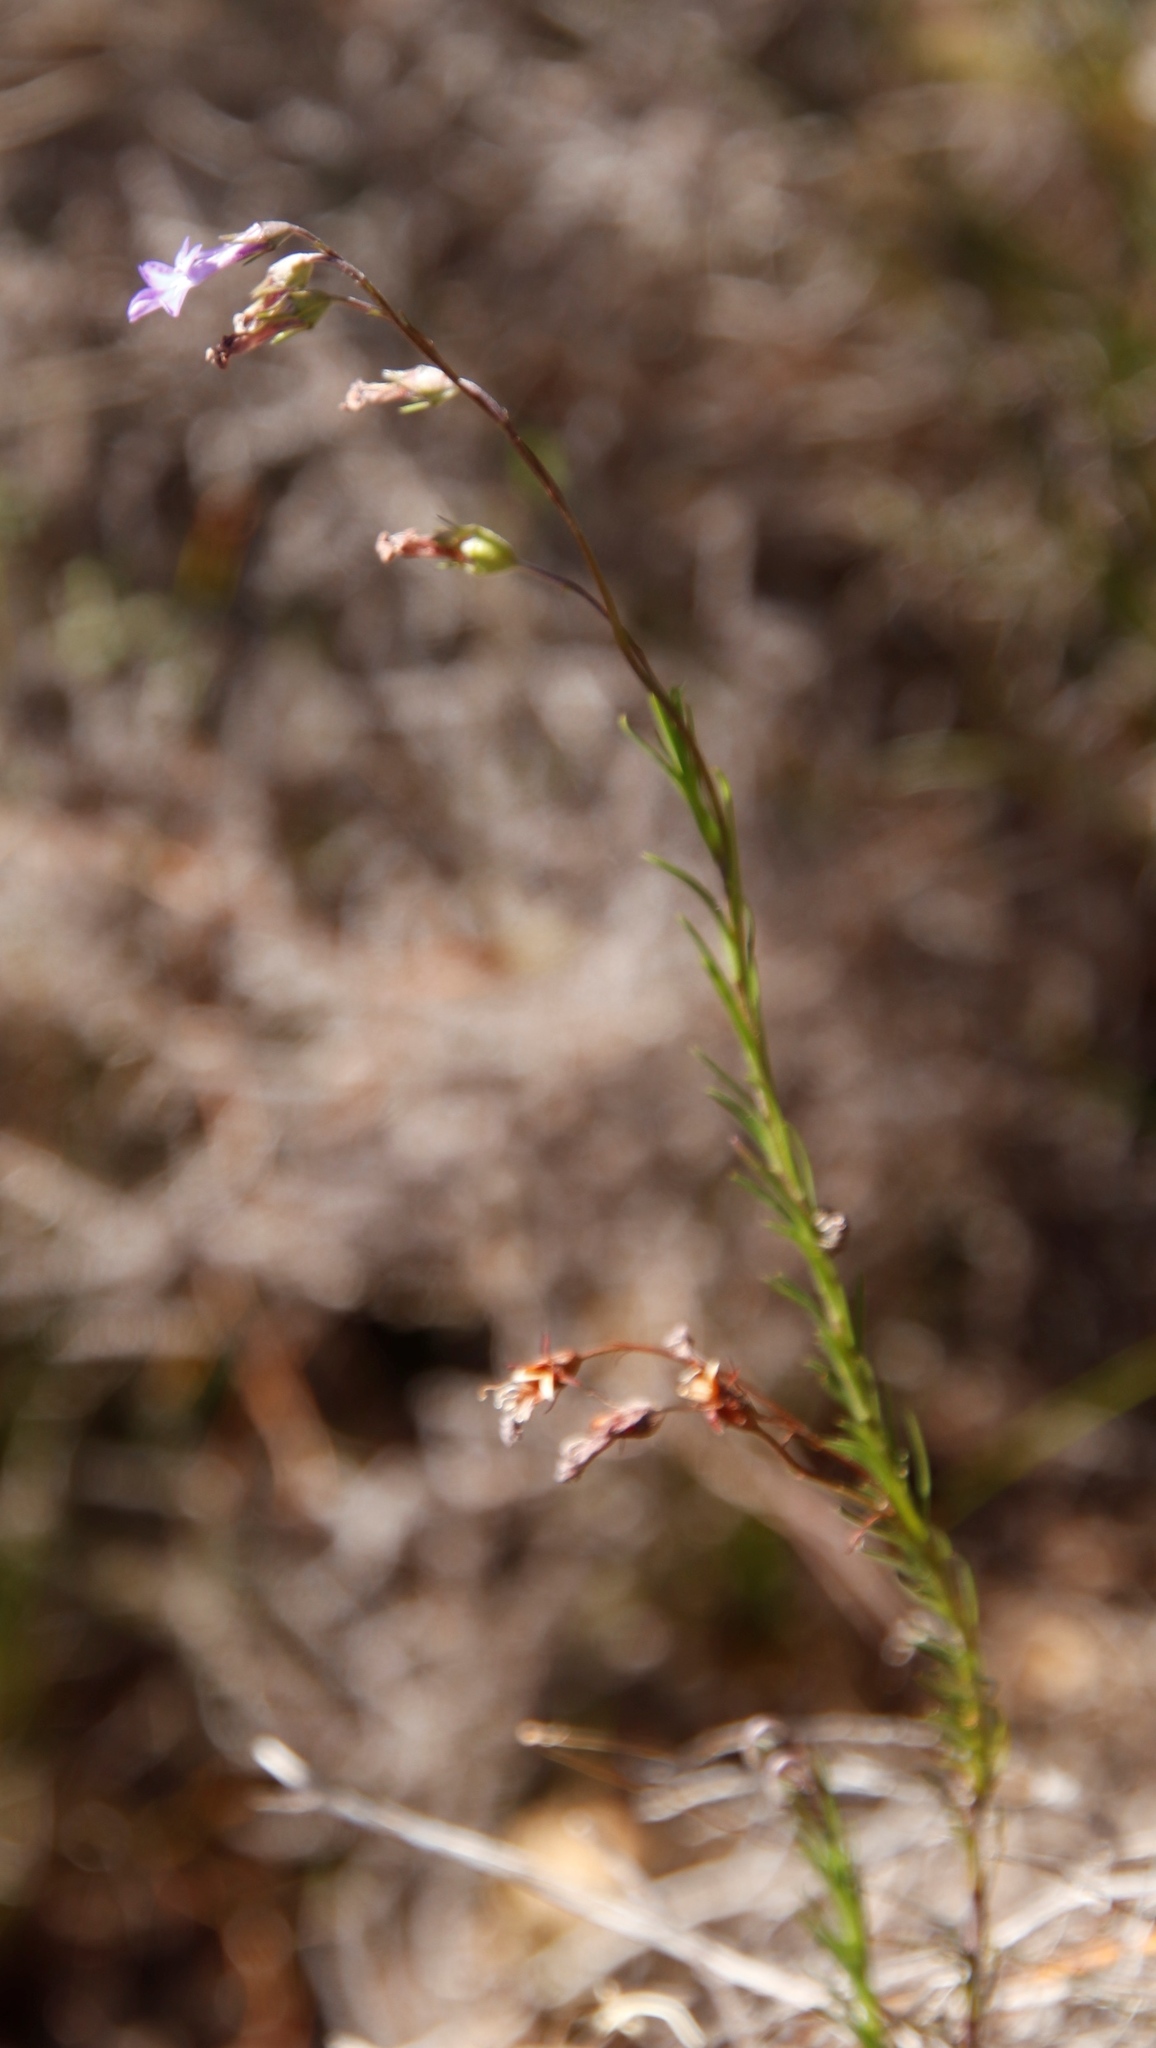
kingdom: Plantae
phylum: Tracheophyta
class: Magnoliopsida
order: Asterales
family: Campanulaceae
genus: Lobelia
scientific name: Lobelia pinifolia
